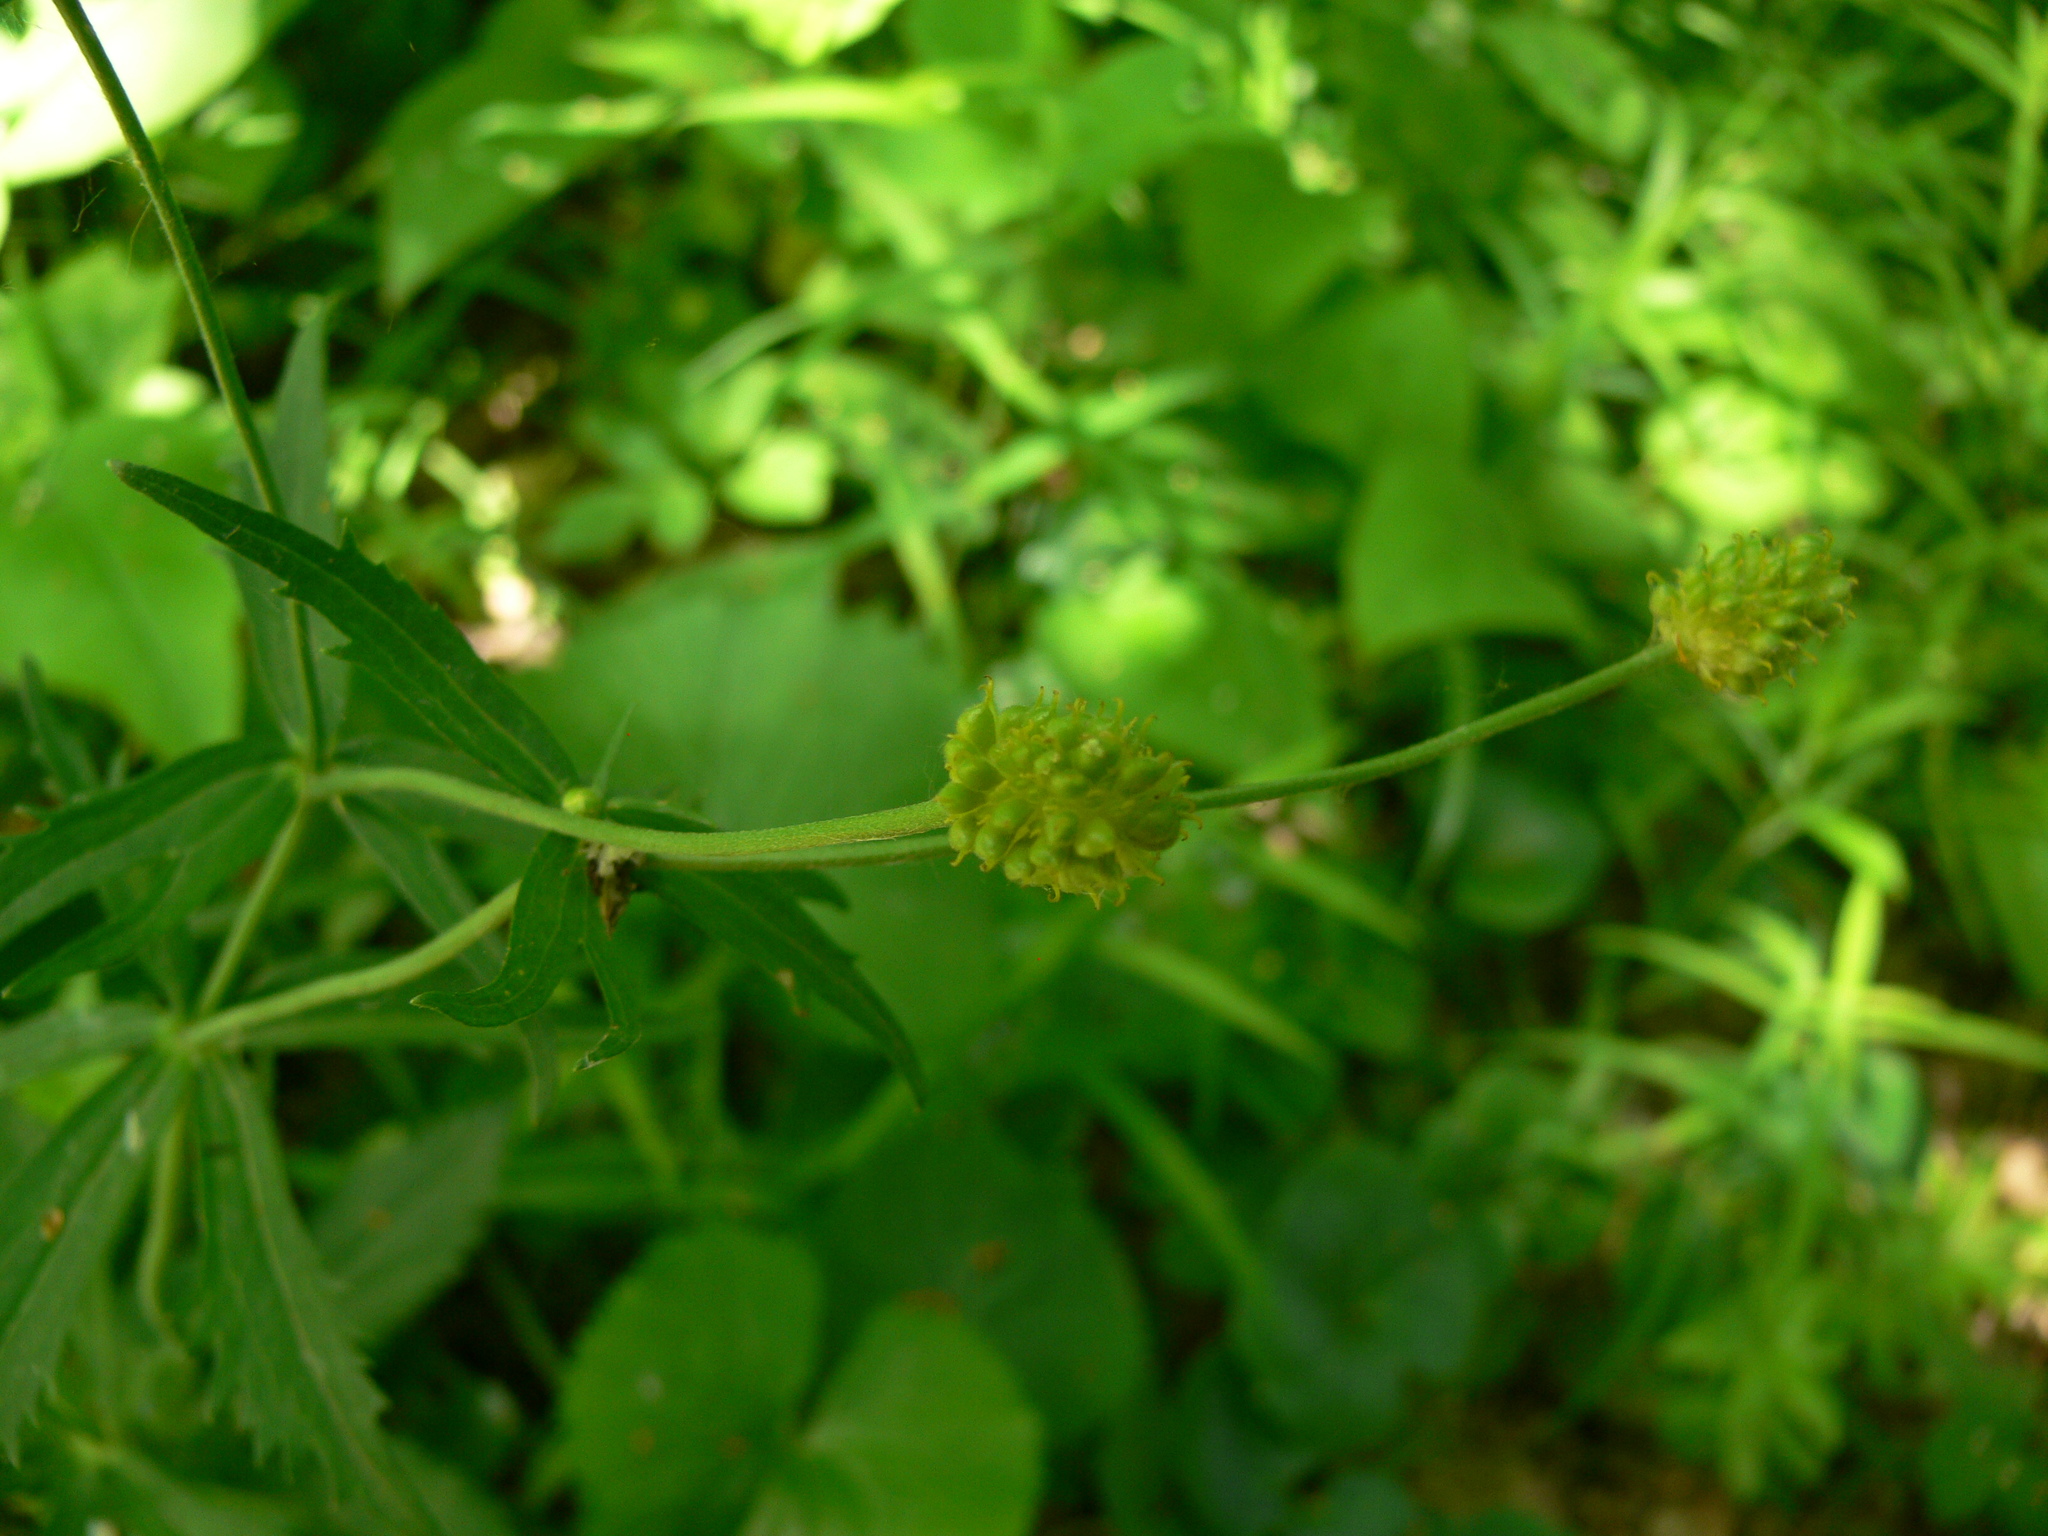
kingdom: Plantae
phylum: Tracheophyta
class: Magnoliopsida
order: Ranunculales
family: Ranunculaceae
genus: Ranunculus
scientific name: Ranunculus cassubicus
